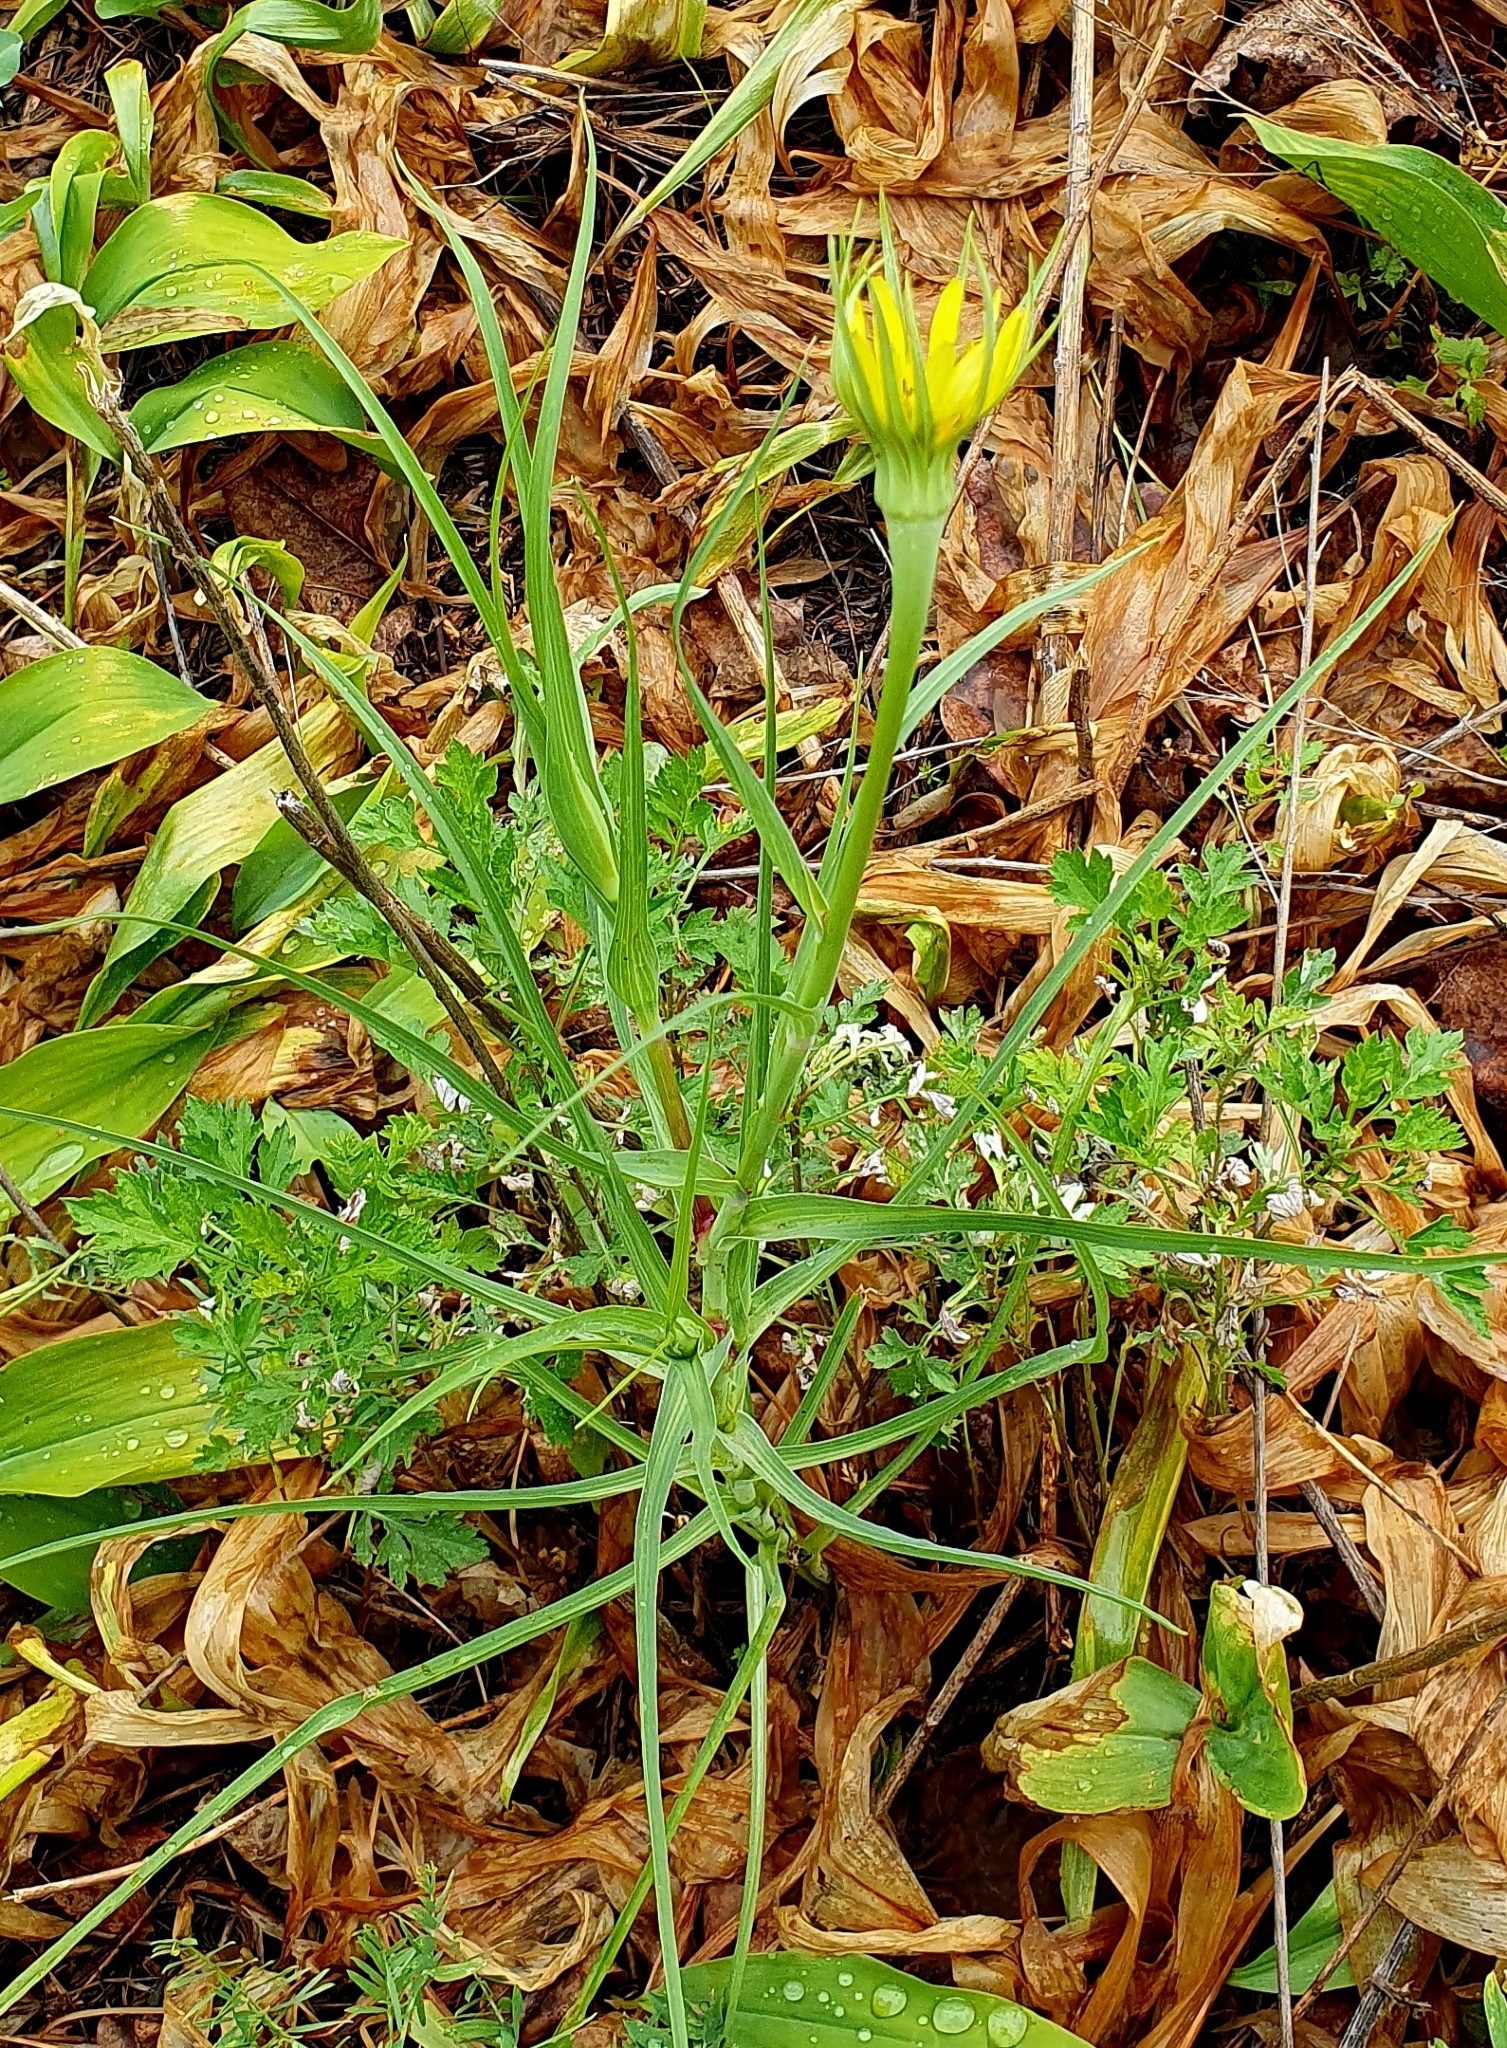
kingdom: Plantae
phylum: Tracheophyta
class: Magnoliopsida
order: Asterales
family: Asteraceae
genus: Tragopogon
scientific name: Tragopogon dubius
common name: Yellow salsify
